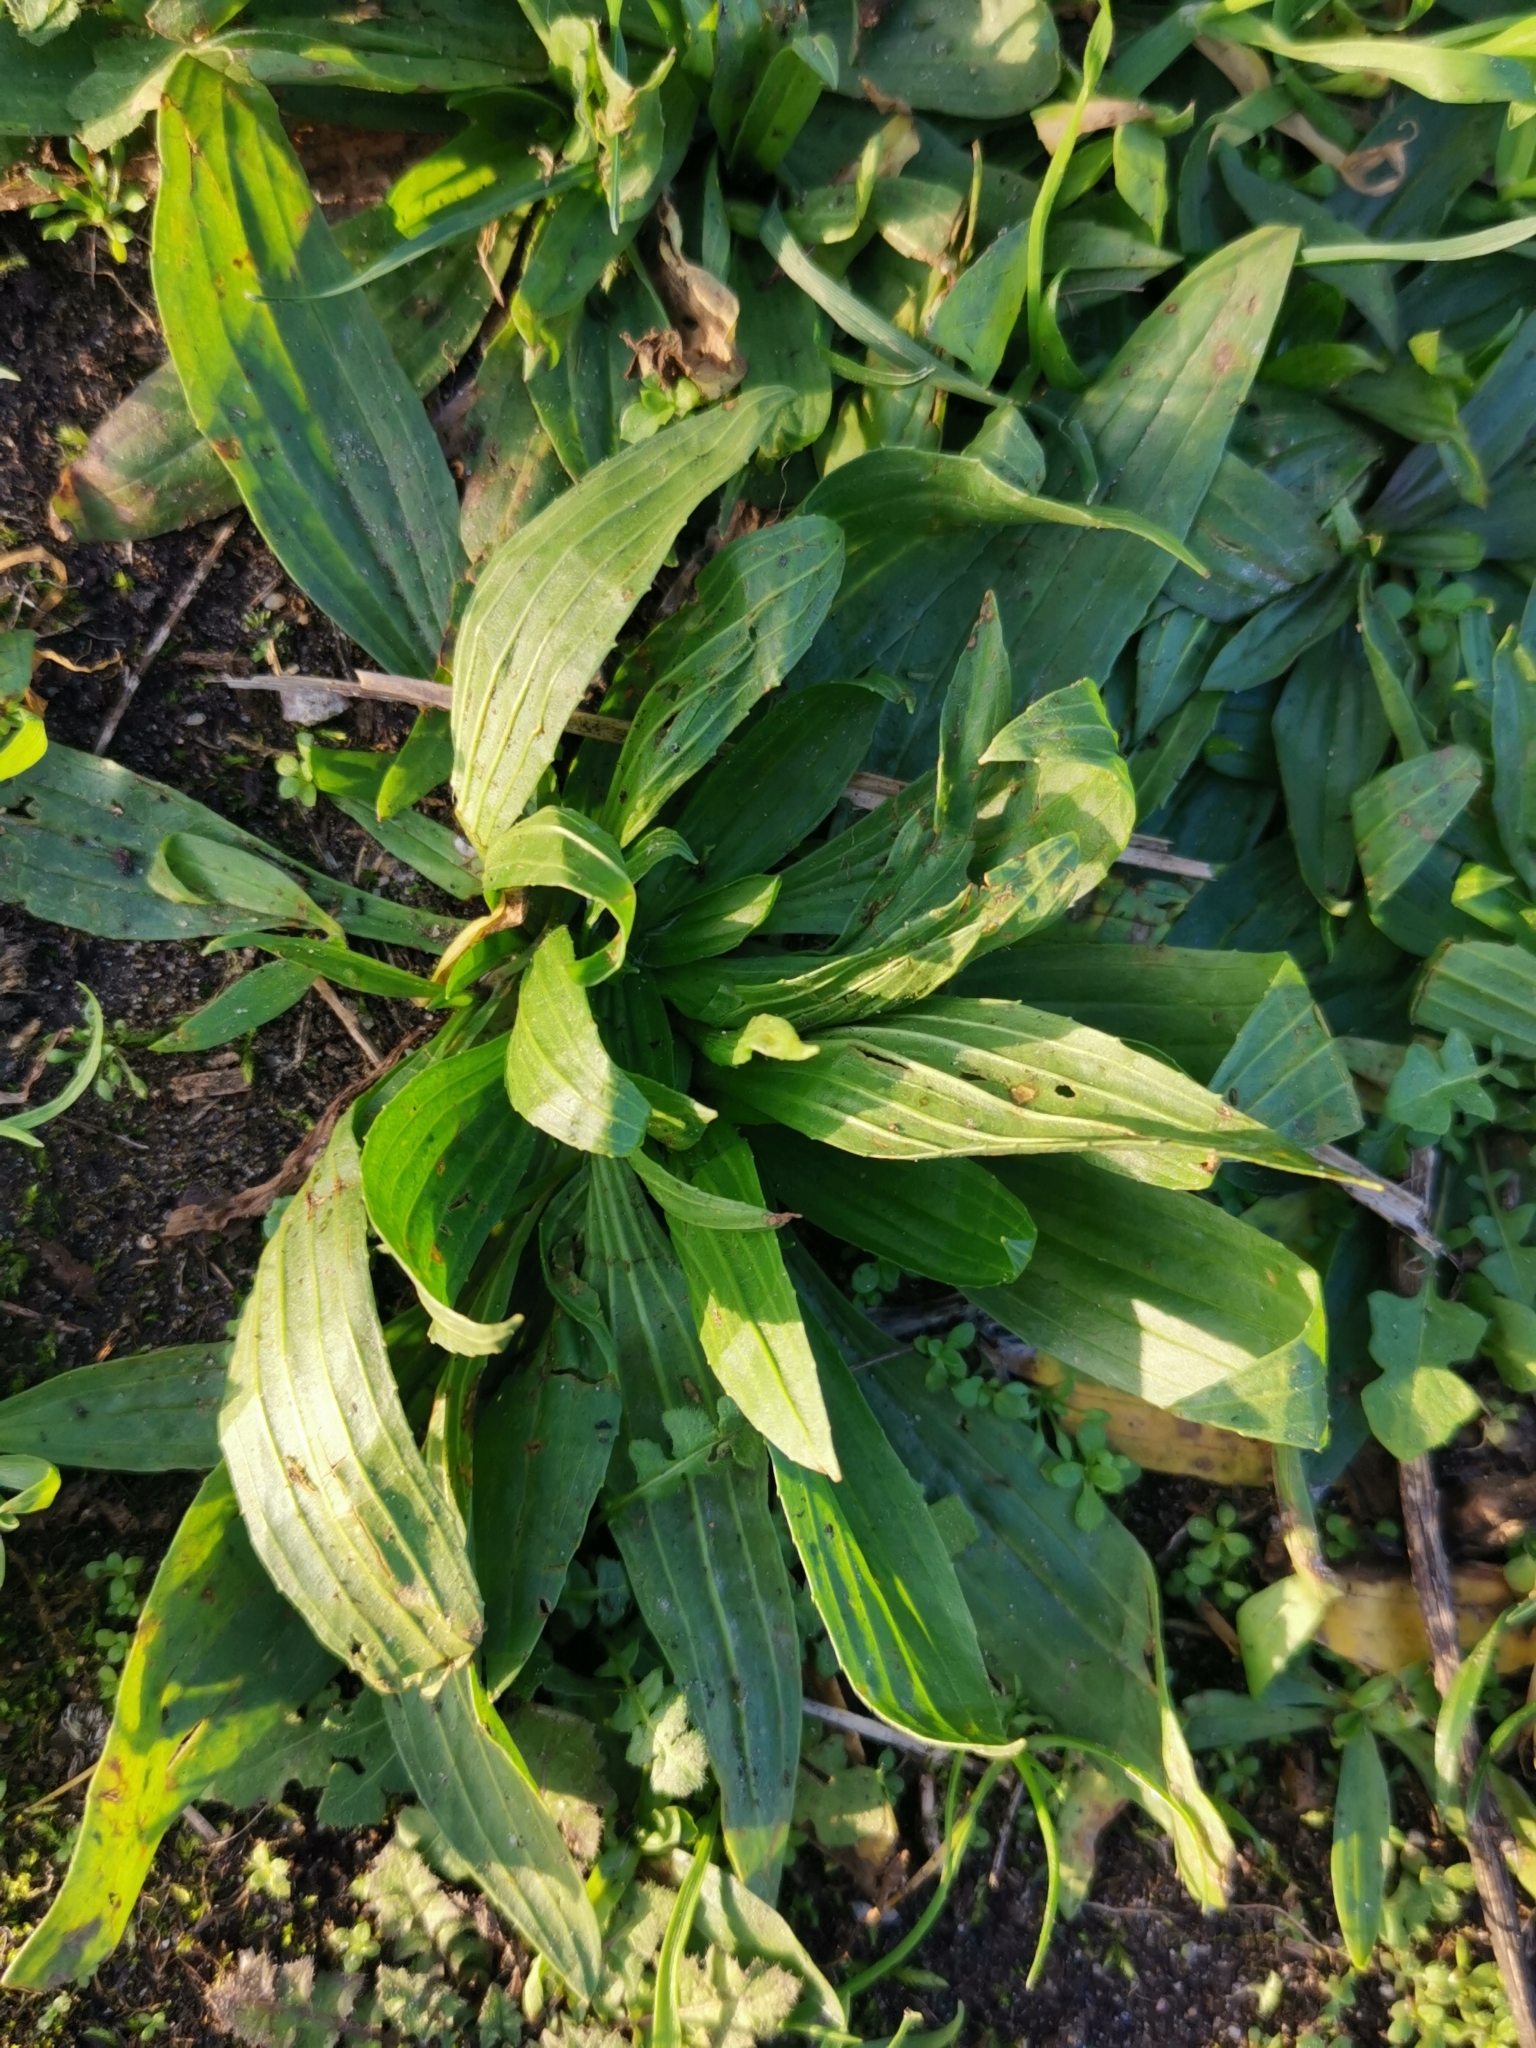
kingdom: Plantae
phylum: Tracheophyta
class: Magnoliopsida
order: Lamiales
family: Plantaginaceae
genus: Plantago
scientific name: Plantago lanceolata
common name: Ribwort plantain
